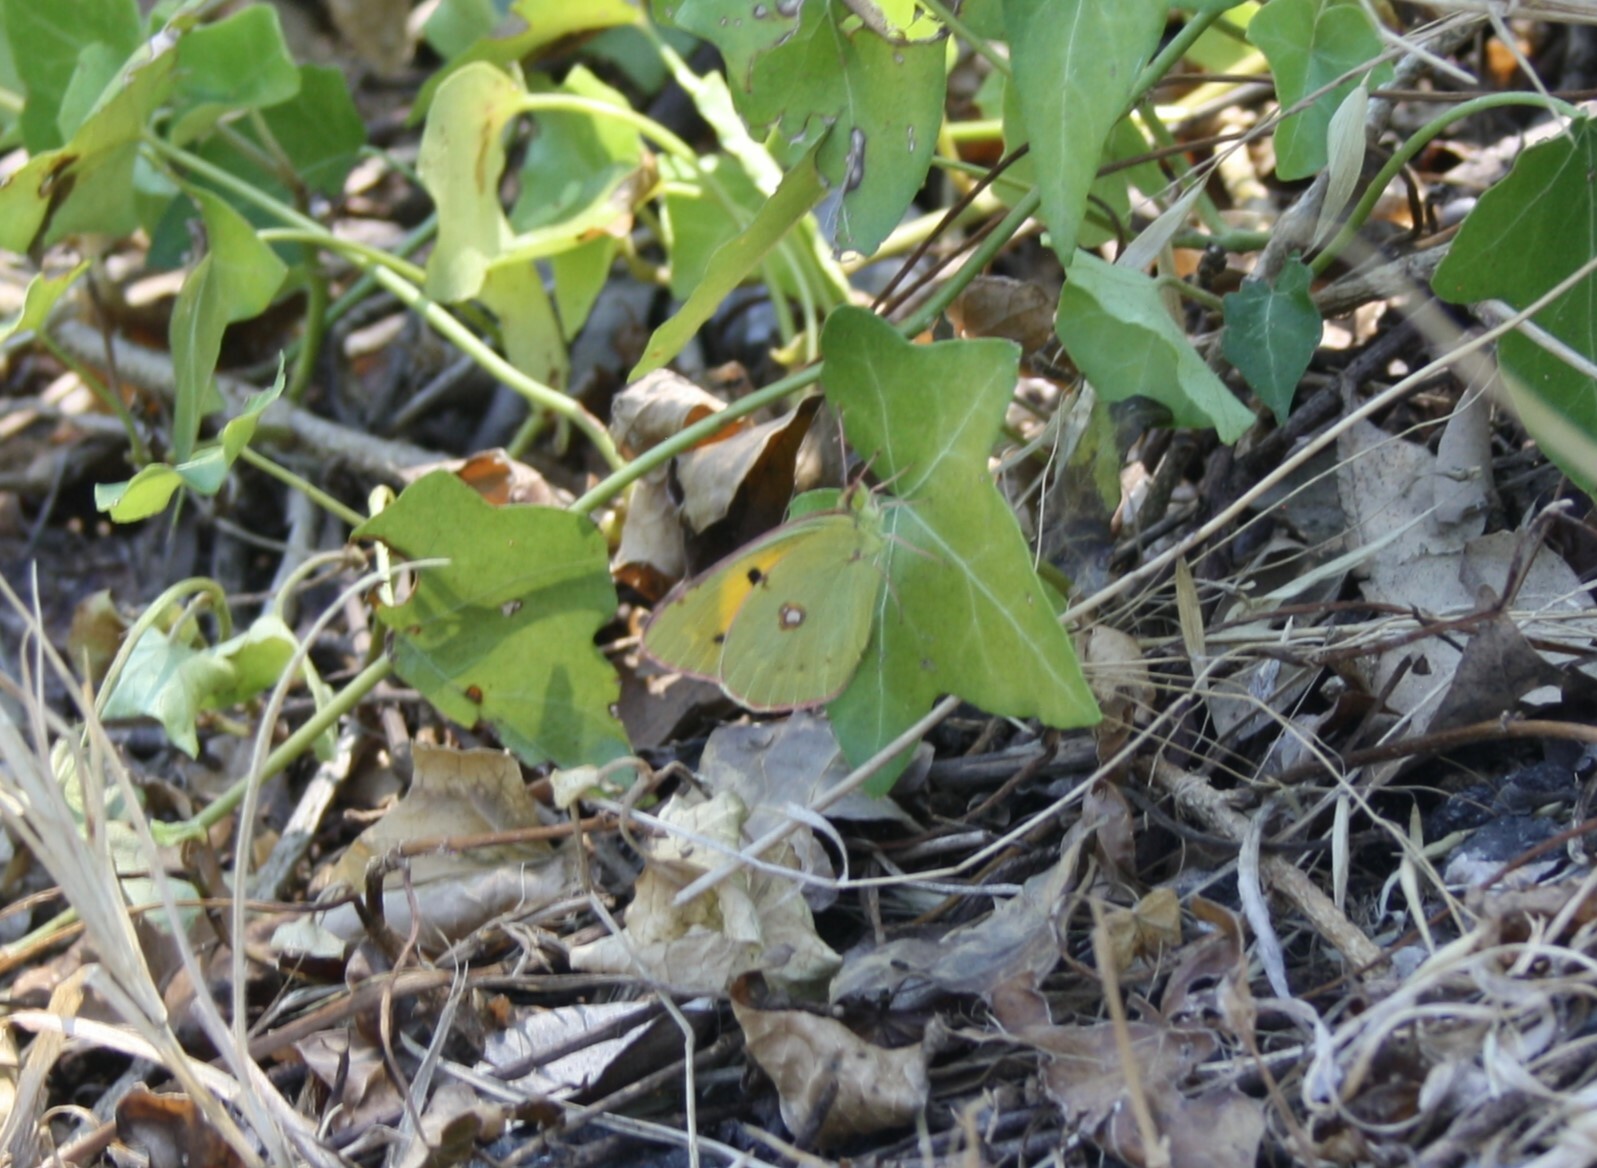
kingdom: Animalia
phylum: Arthropoda
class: Insecta
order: Lepidoptera
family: Pieridae
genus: Colias
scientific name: Colias croceus
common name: Clouded yellow
